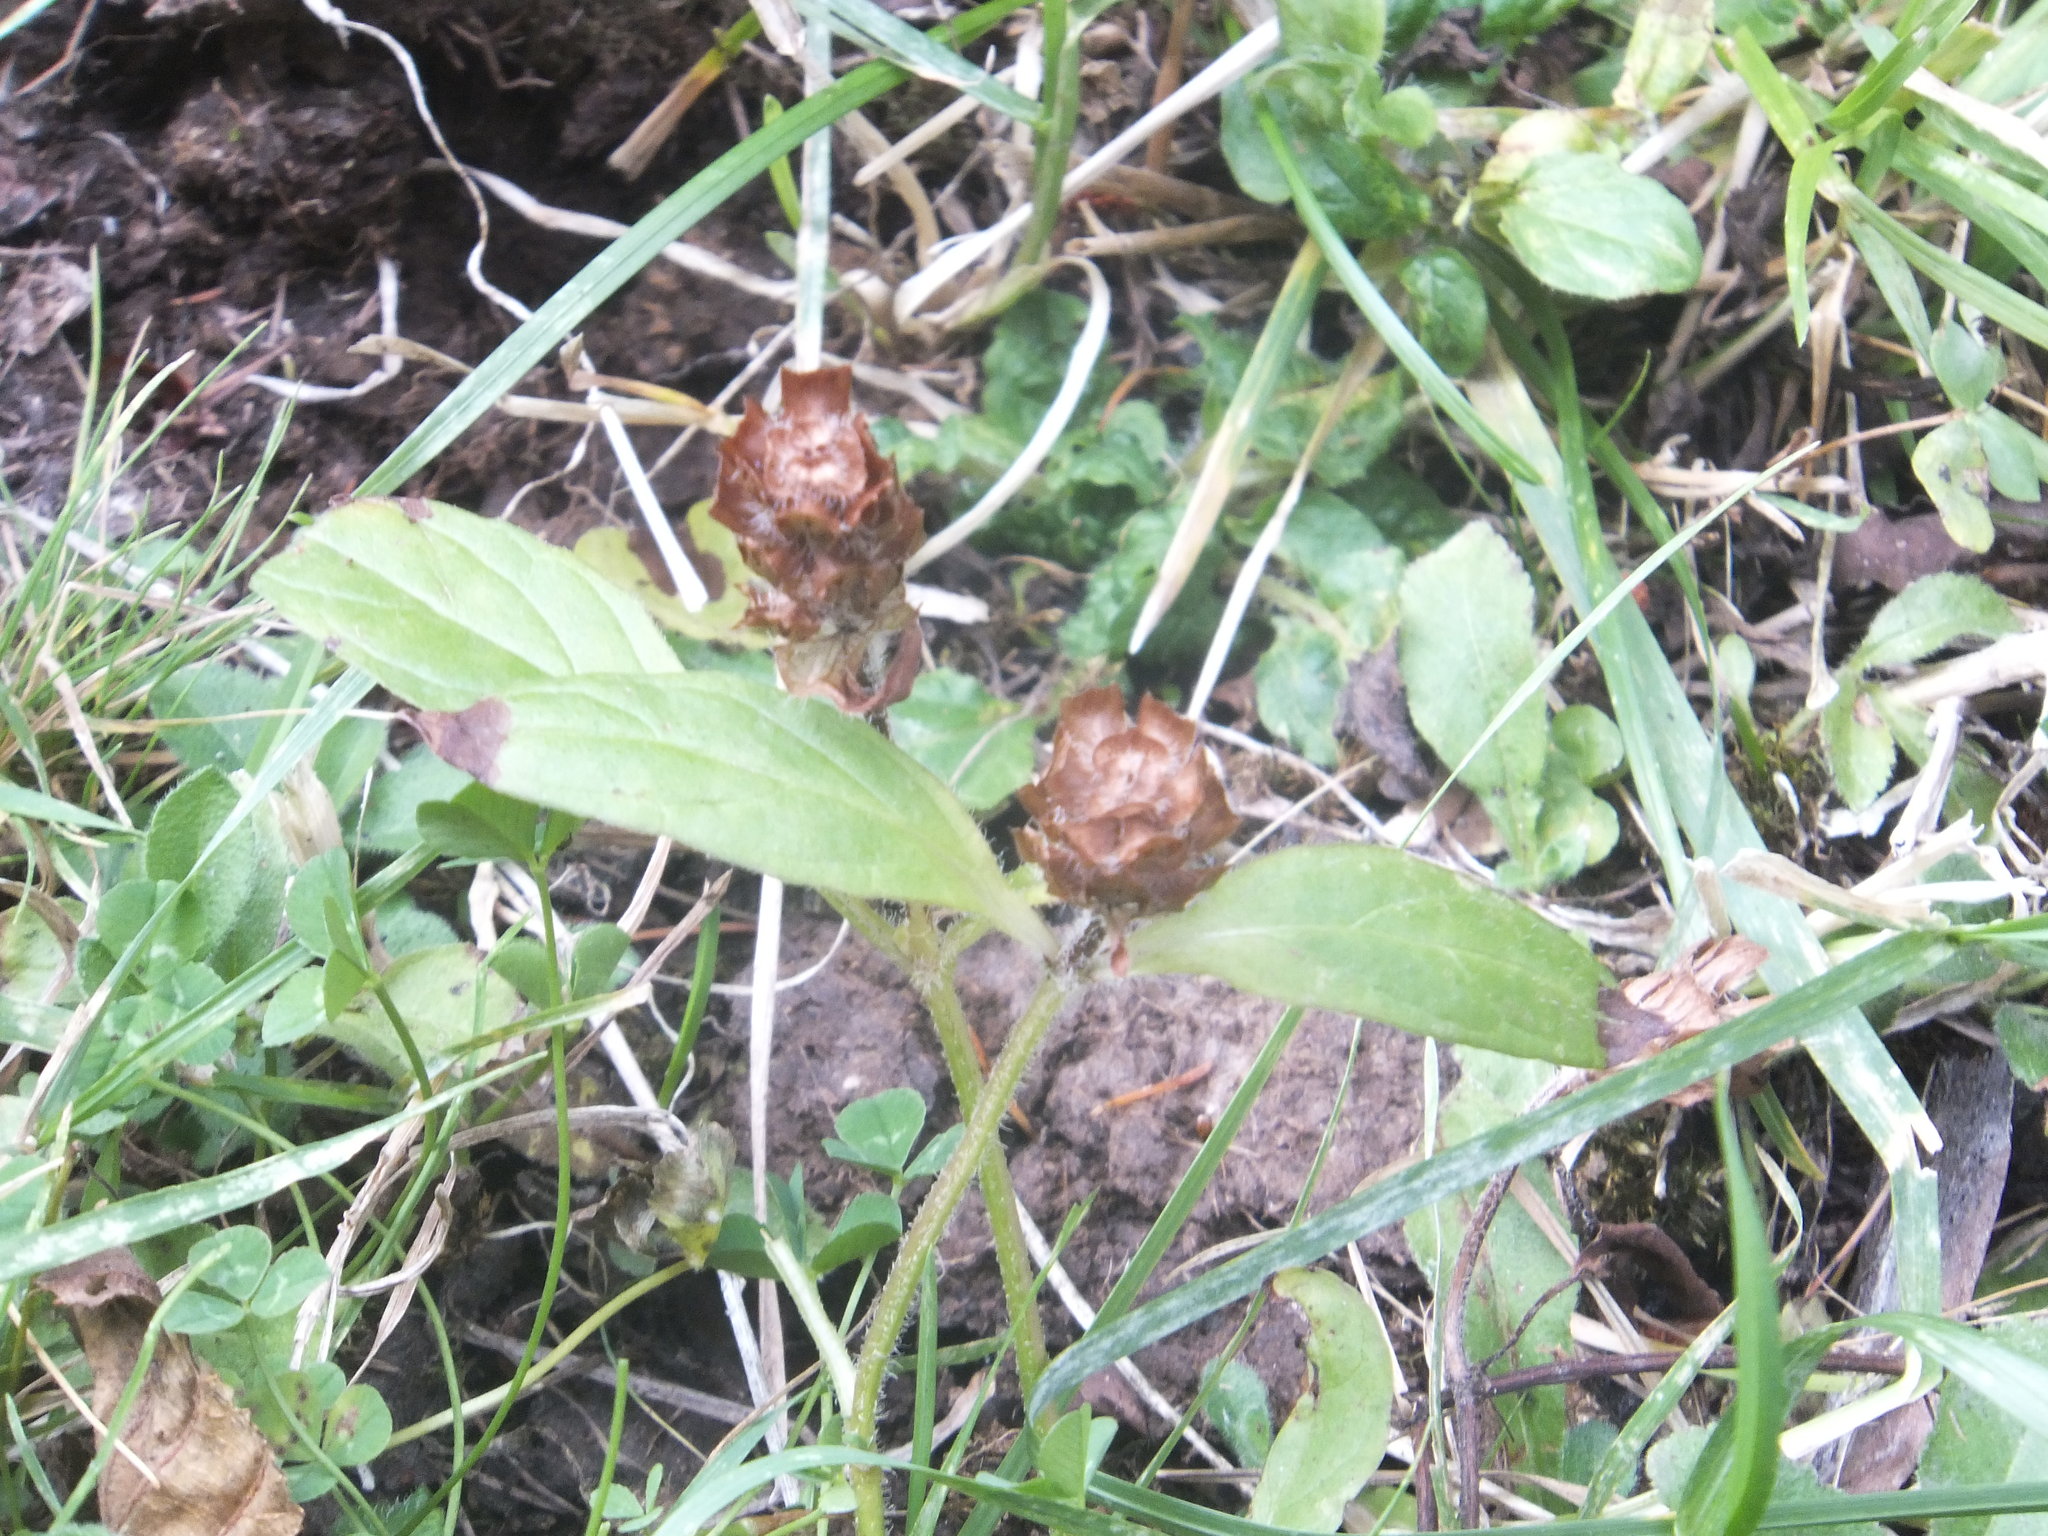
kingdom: Plantae
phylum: Tracheophyta
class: Magnoliopsida
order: Lamiales
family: Lamiaceae
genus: Prunella
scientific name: Prunella vulgaris
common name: Heal-all
